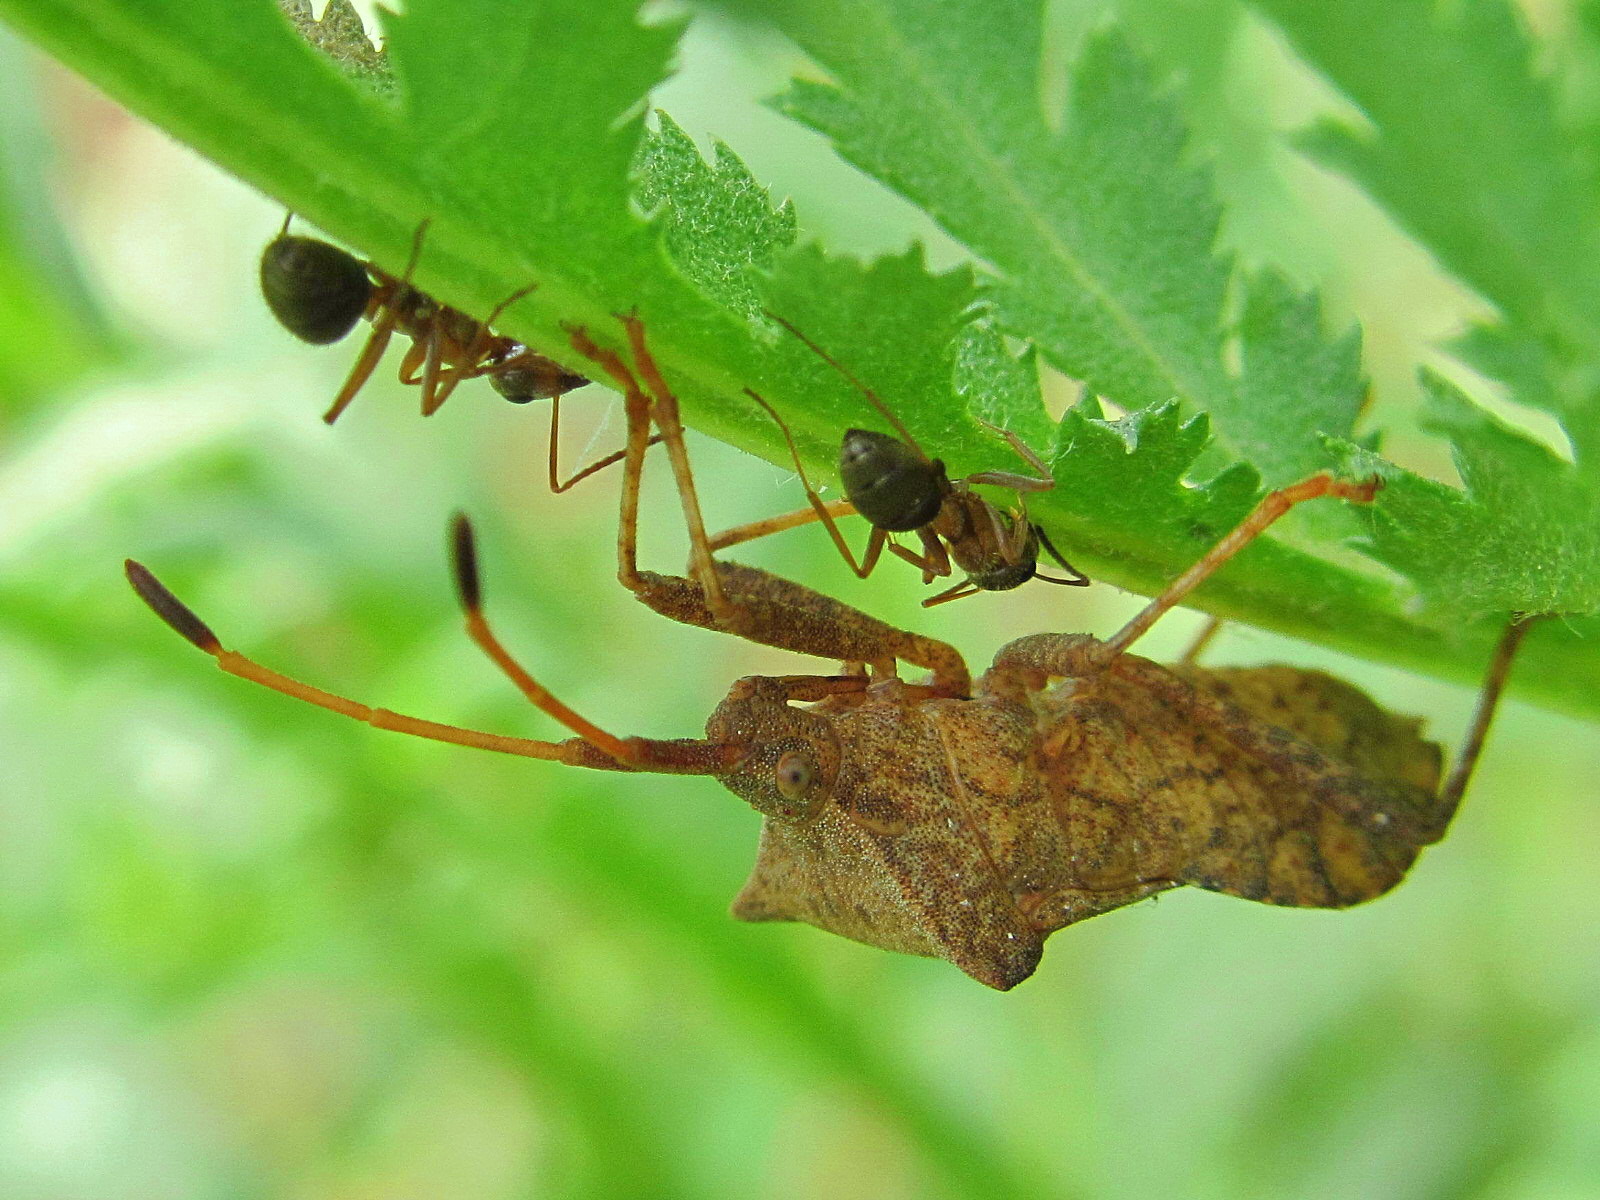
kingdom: Animalia
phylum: Arthropoda
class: Insecta
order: Hemiptera
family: Coreidae
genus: Coreus
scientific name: Coreus marginatus
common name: Dock bug
